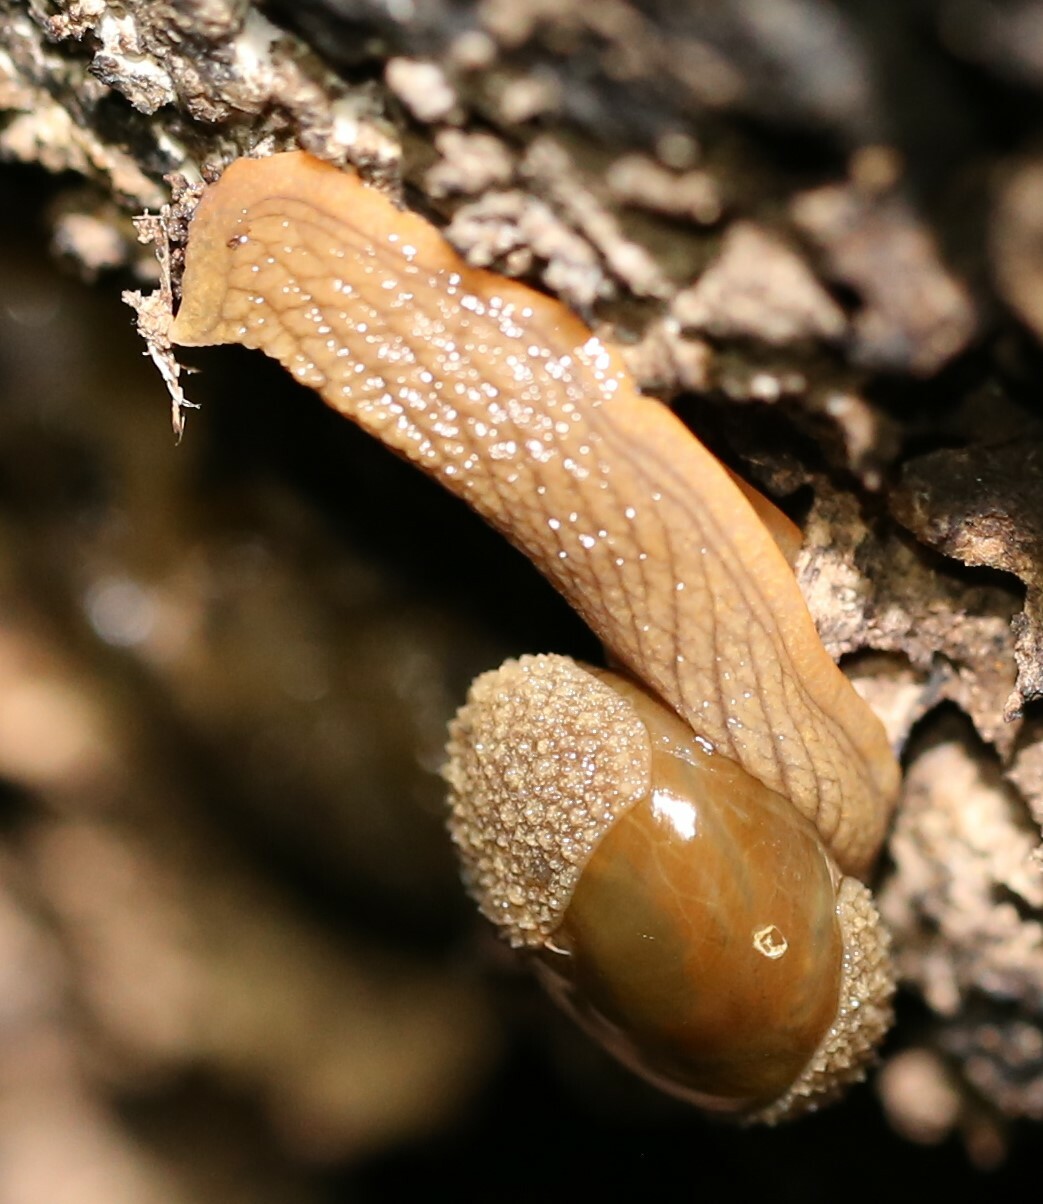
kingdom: Animalia
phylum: Mollusca
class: Gastropoda
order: Stylommatophora
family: Helicarionidae
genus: Stanisicarion
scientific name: Stanisicarion aquila
